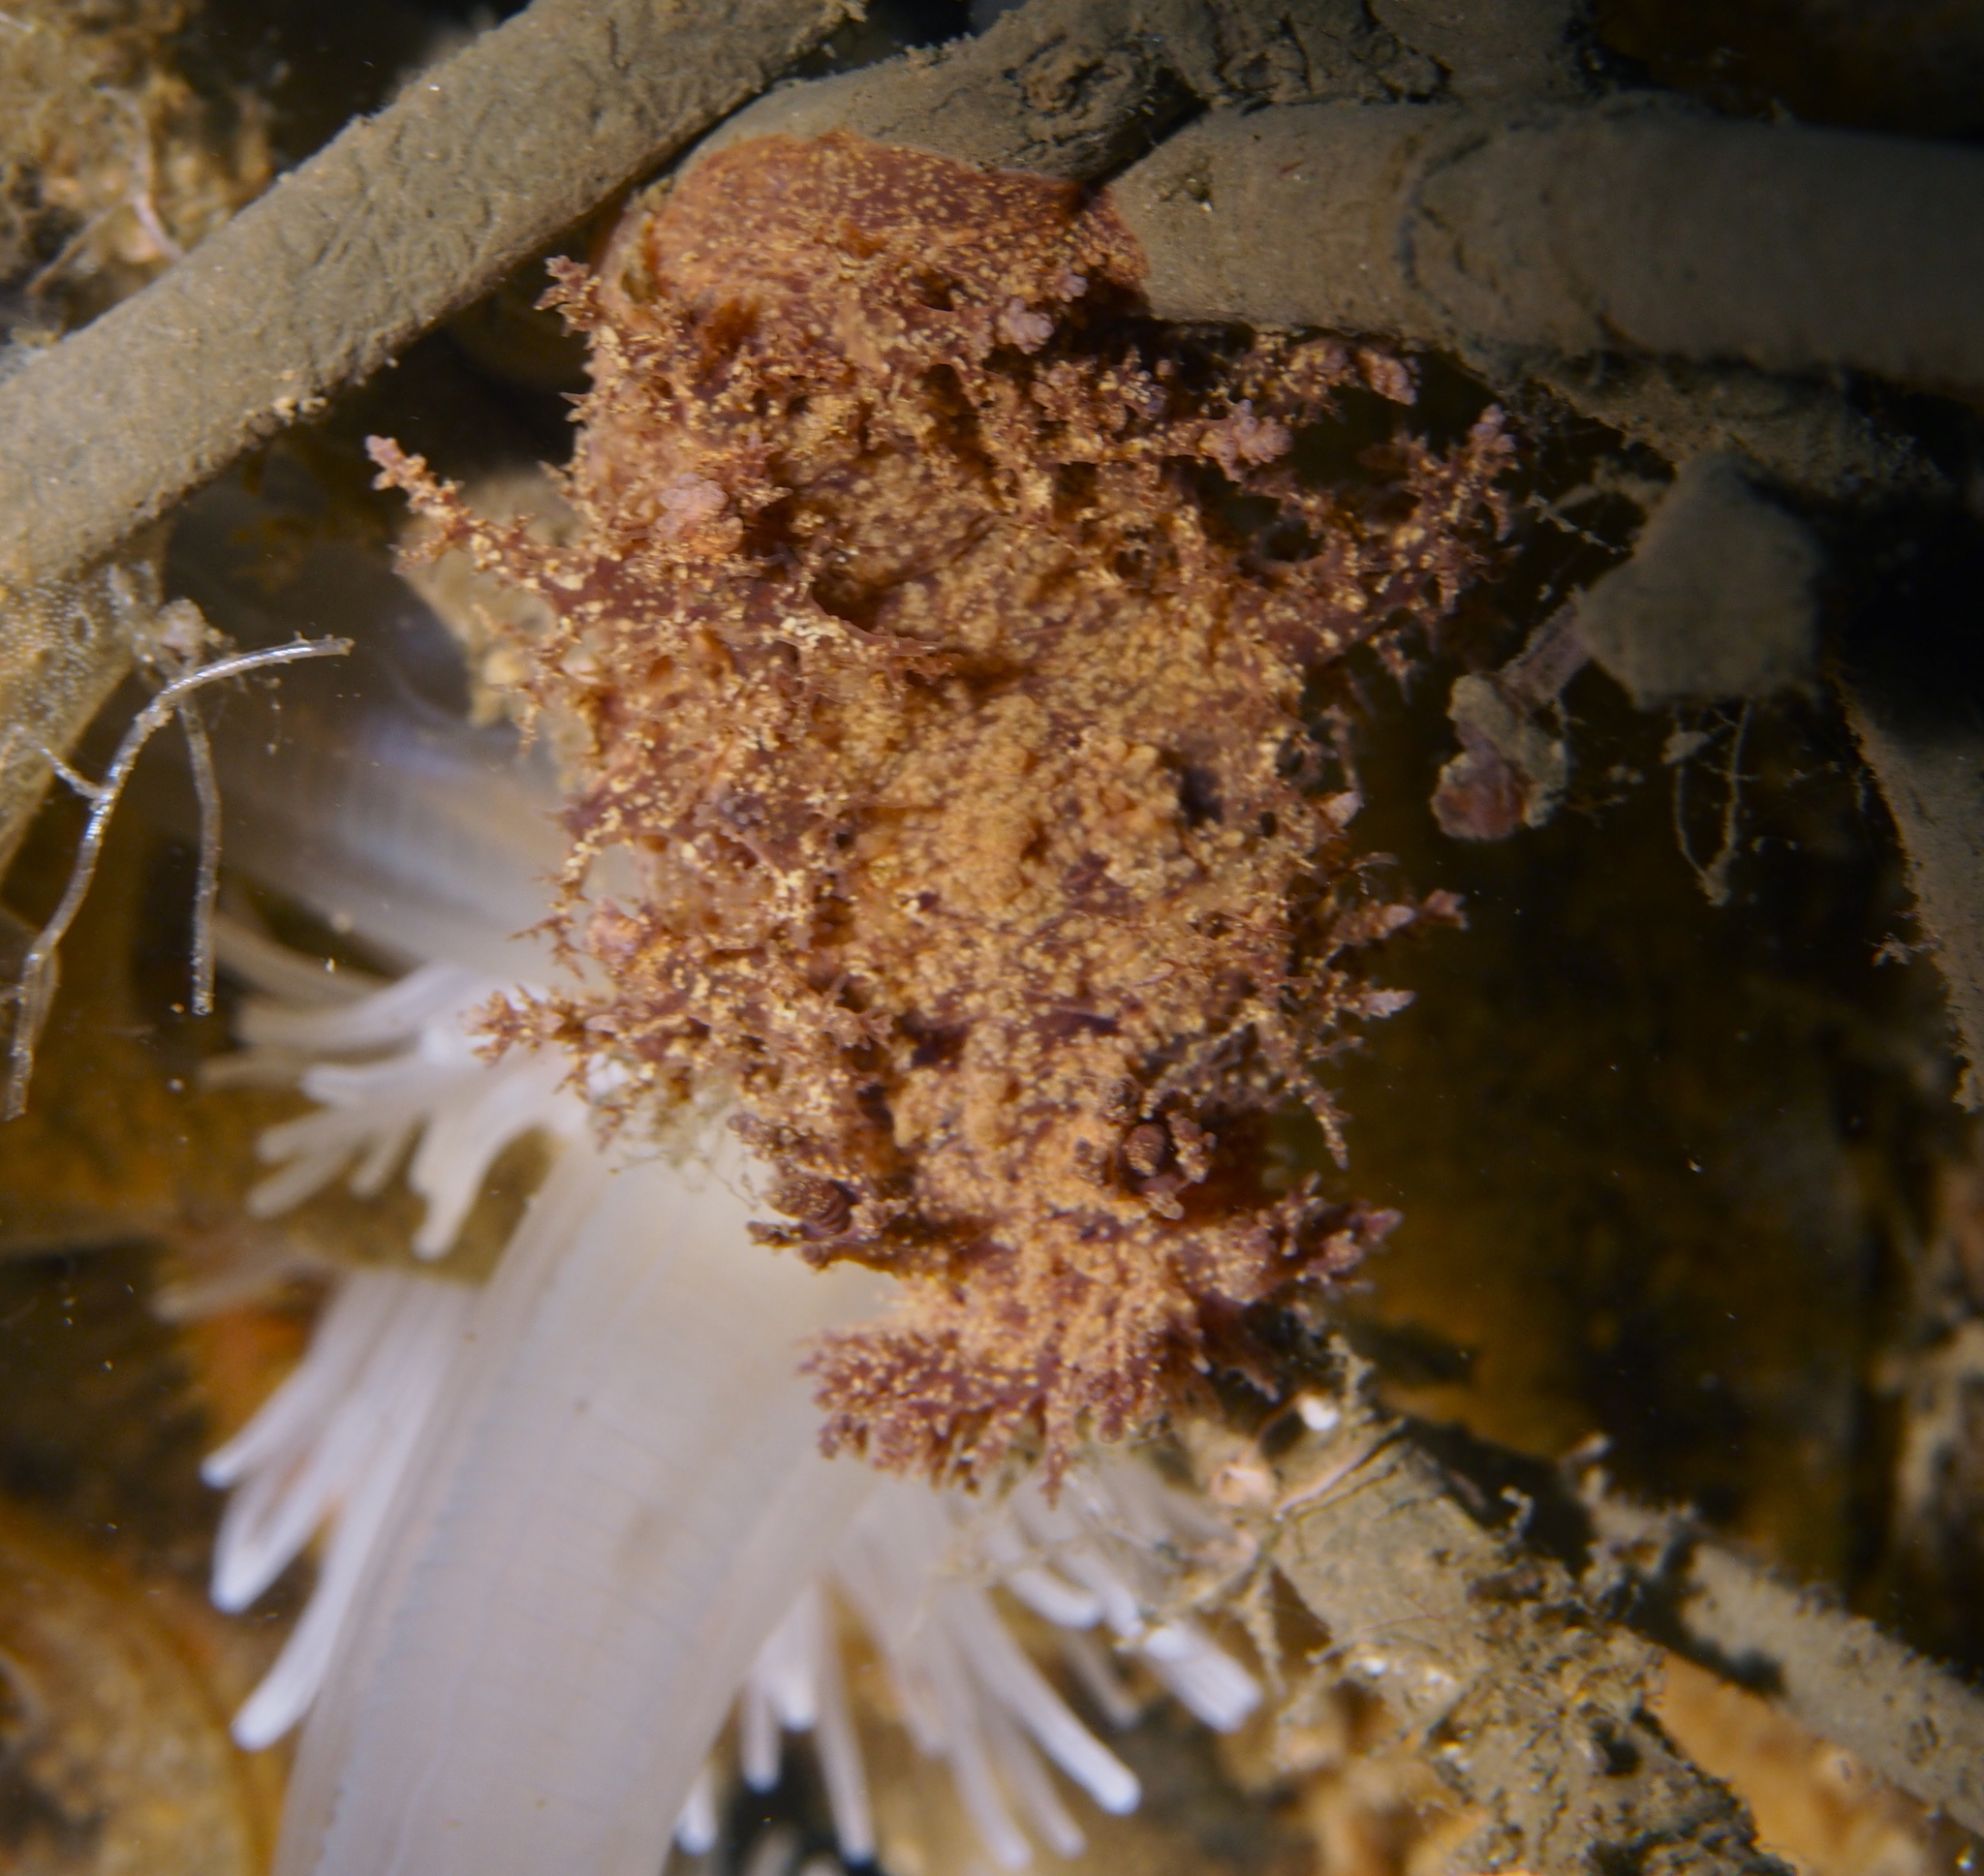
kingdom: Animalia
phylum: Mollusca
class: Gastropoda
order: Nudibranchia
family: Dendronotidae
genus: Dendronotus
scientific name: Dendronotus europaeus
